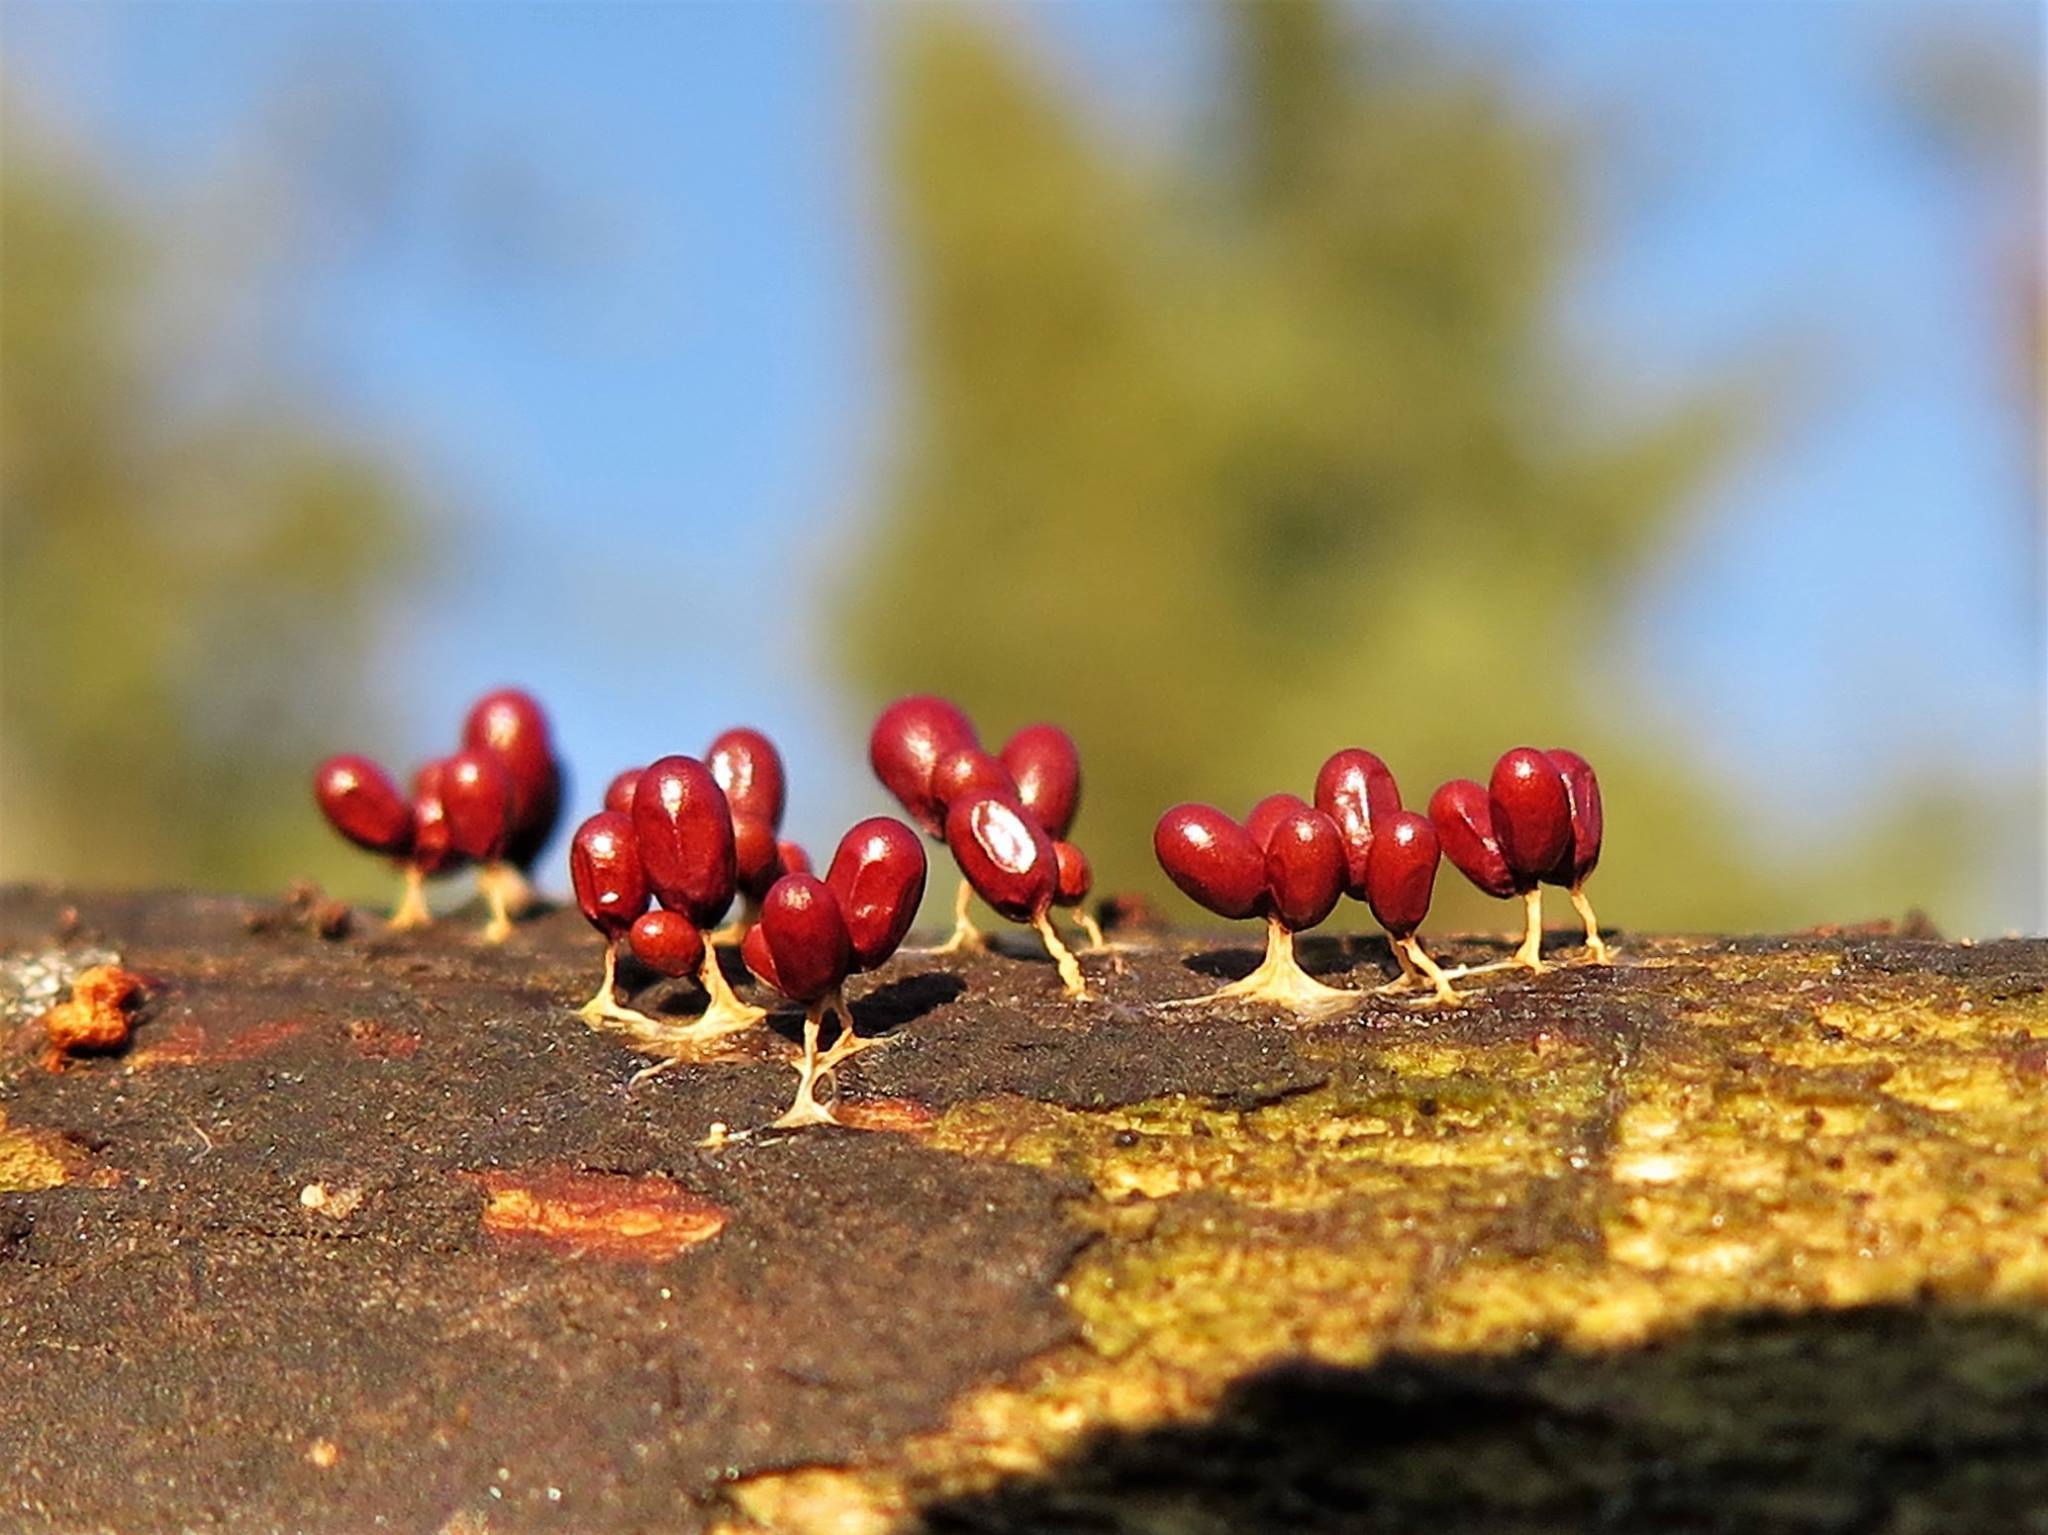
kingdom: Protozoa
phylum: Mycetozoa
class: Myxomycetes
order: Physarales
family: Physaraceae
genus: Leocarpus
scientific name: Leocarpus fragilis
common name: Insect-egg slime
